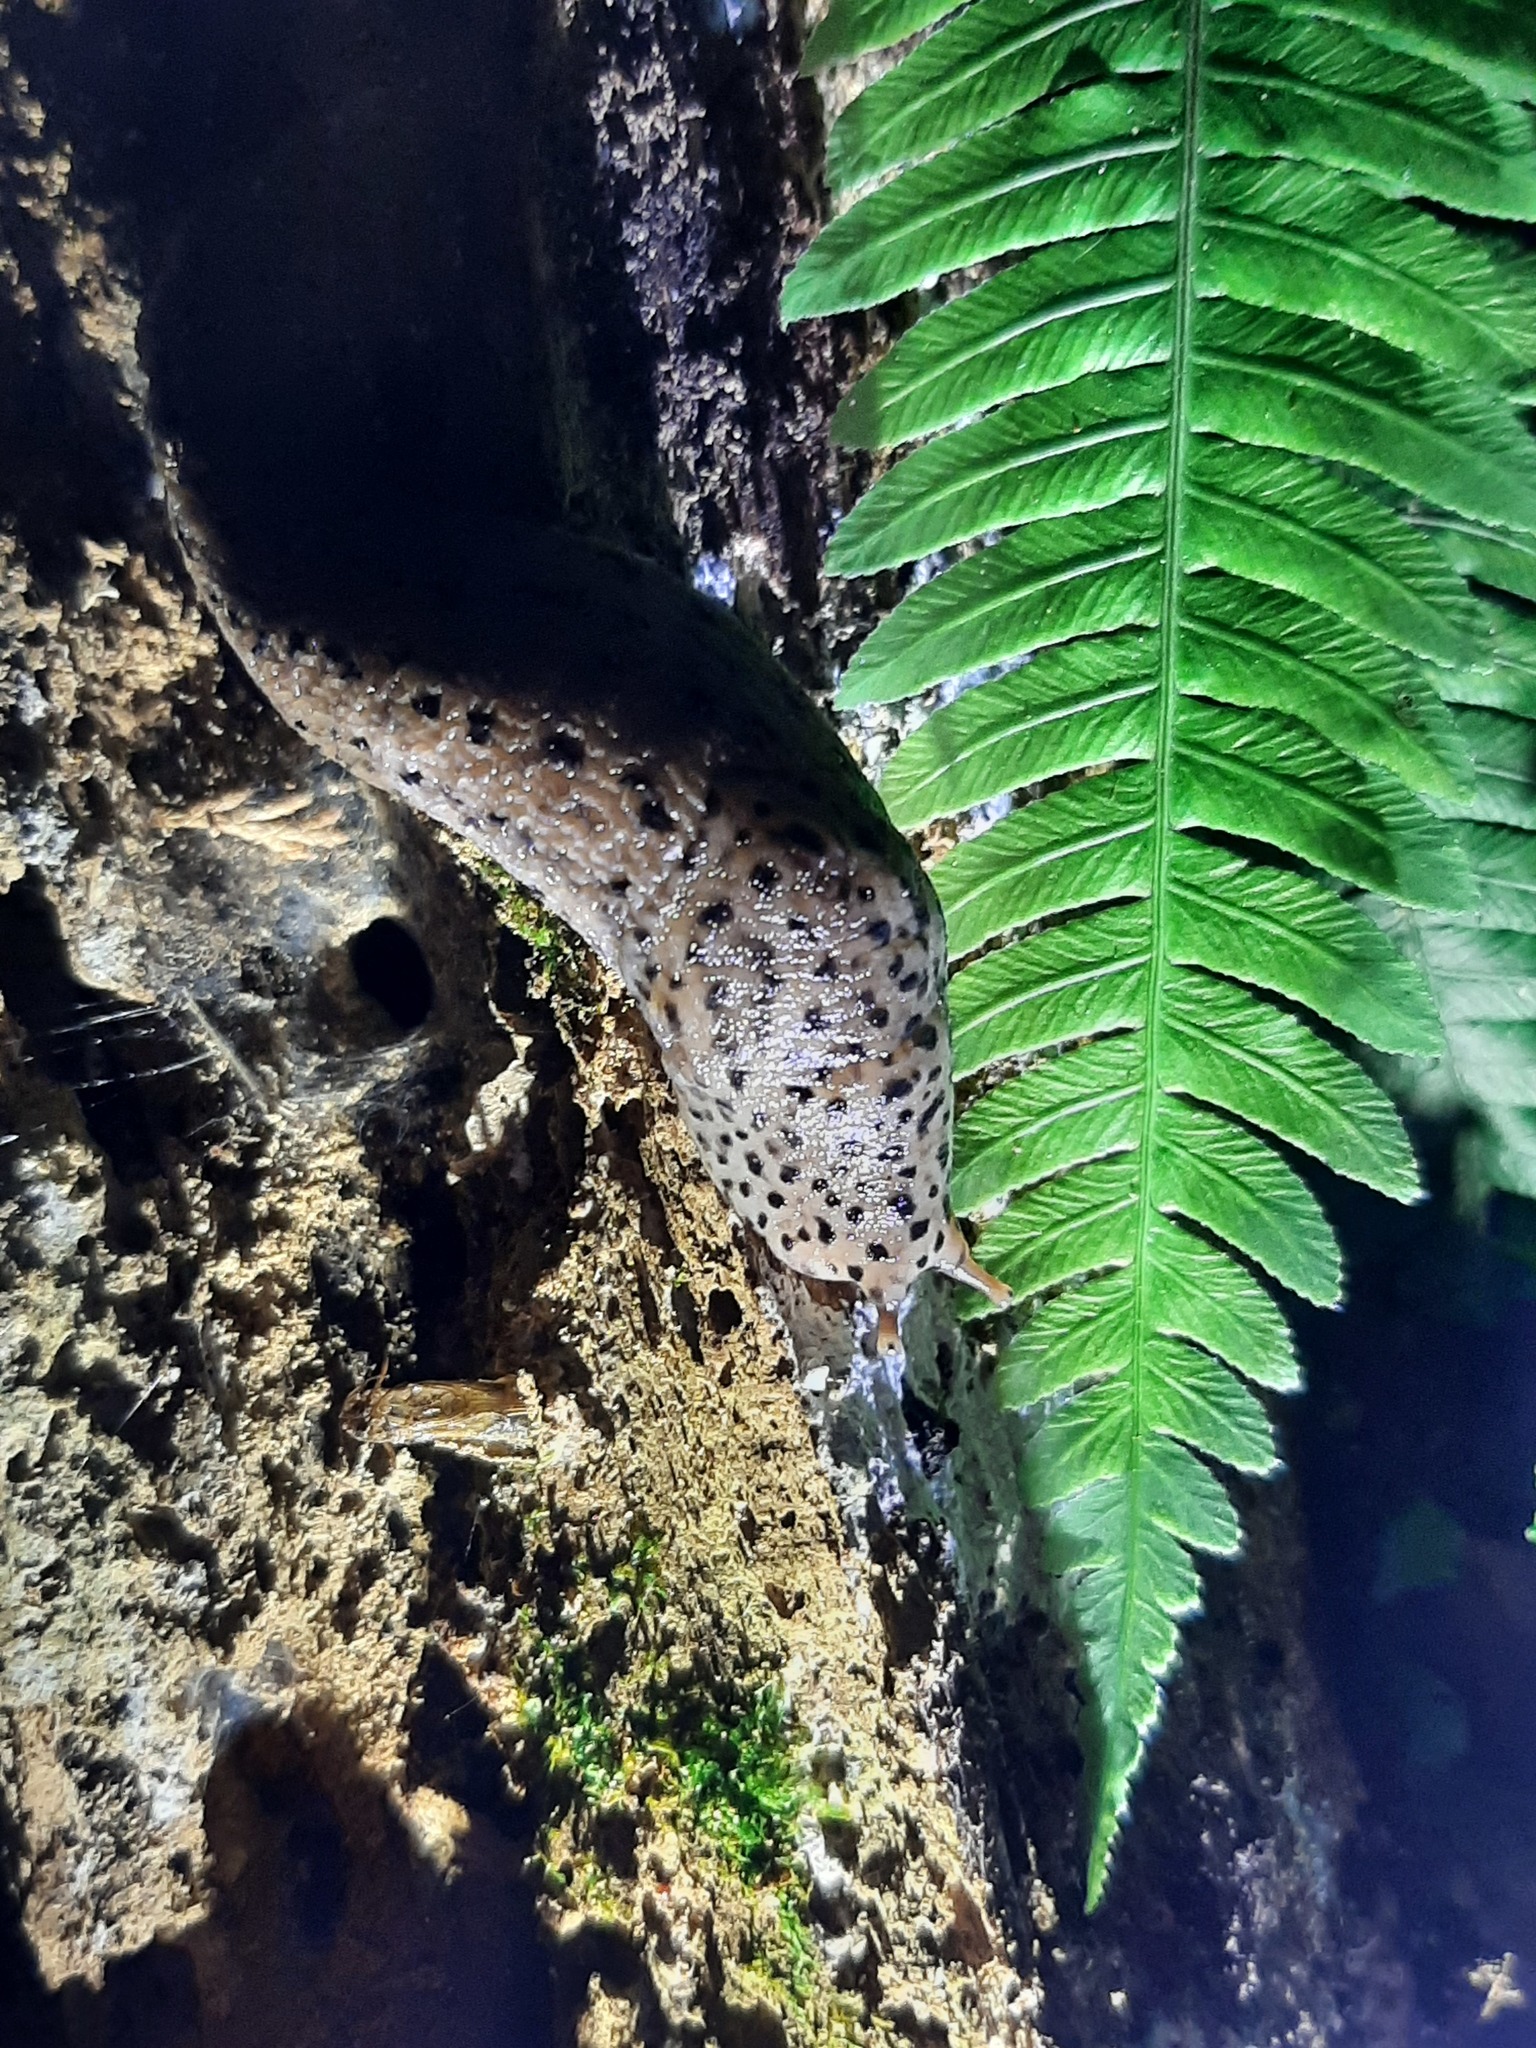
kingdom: Animalia
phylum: Mollusca
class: Gastropoda
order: Stylommatophora
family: Limacidae
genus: Limax
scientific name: Limax maximus
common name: Great grey slug
